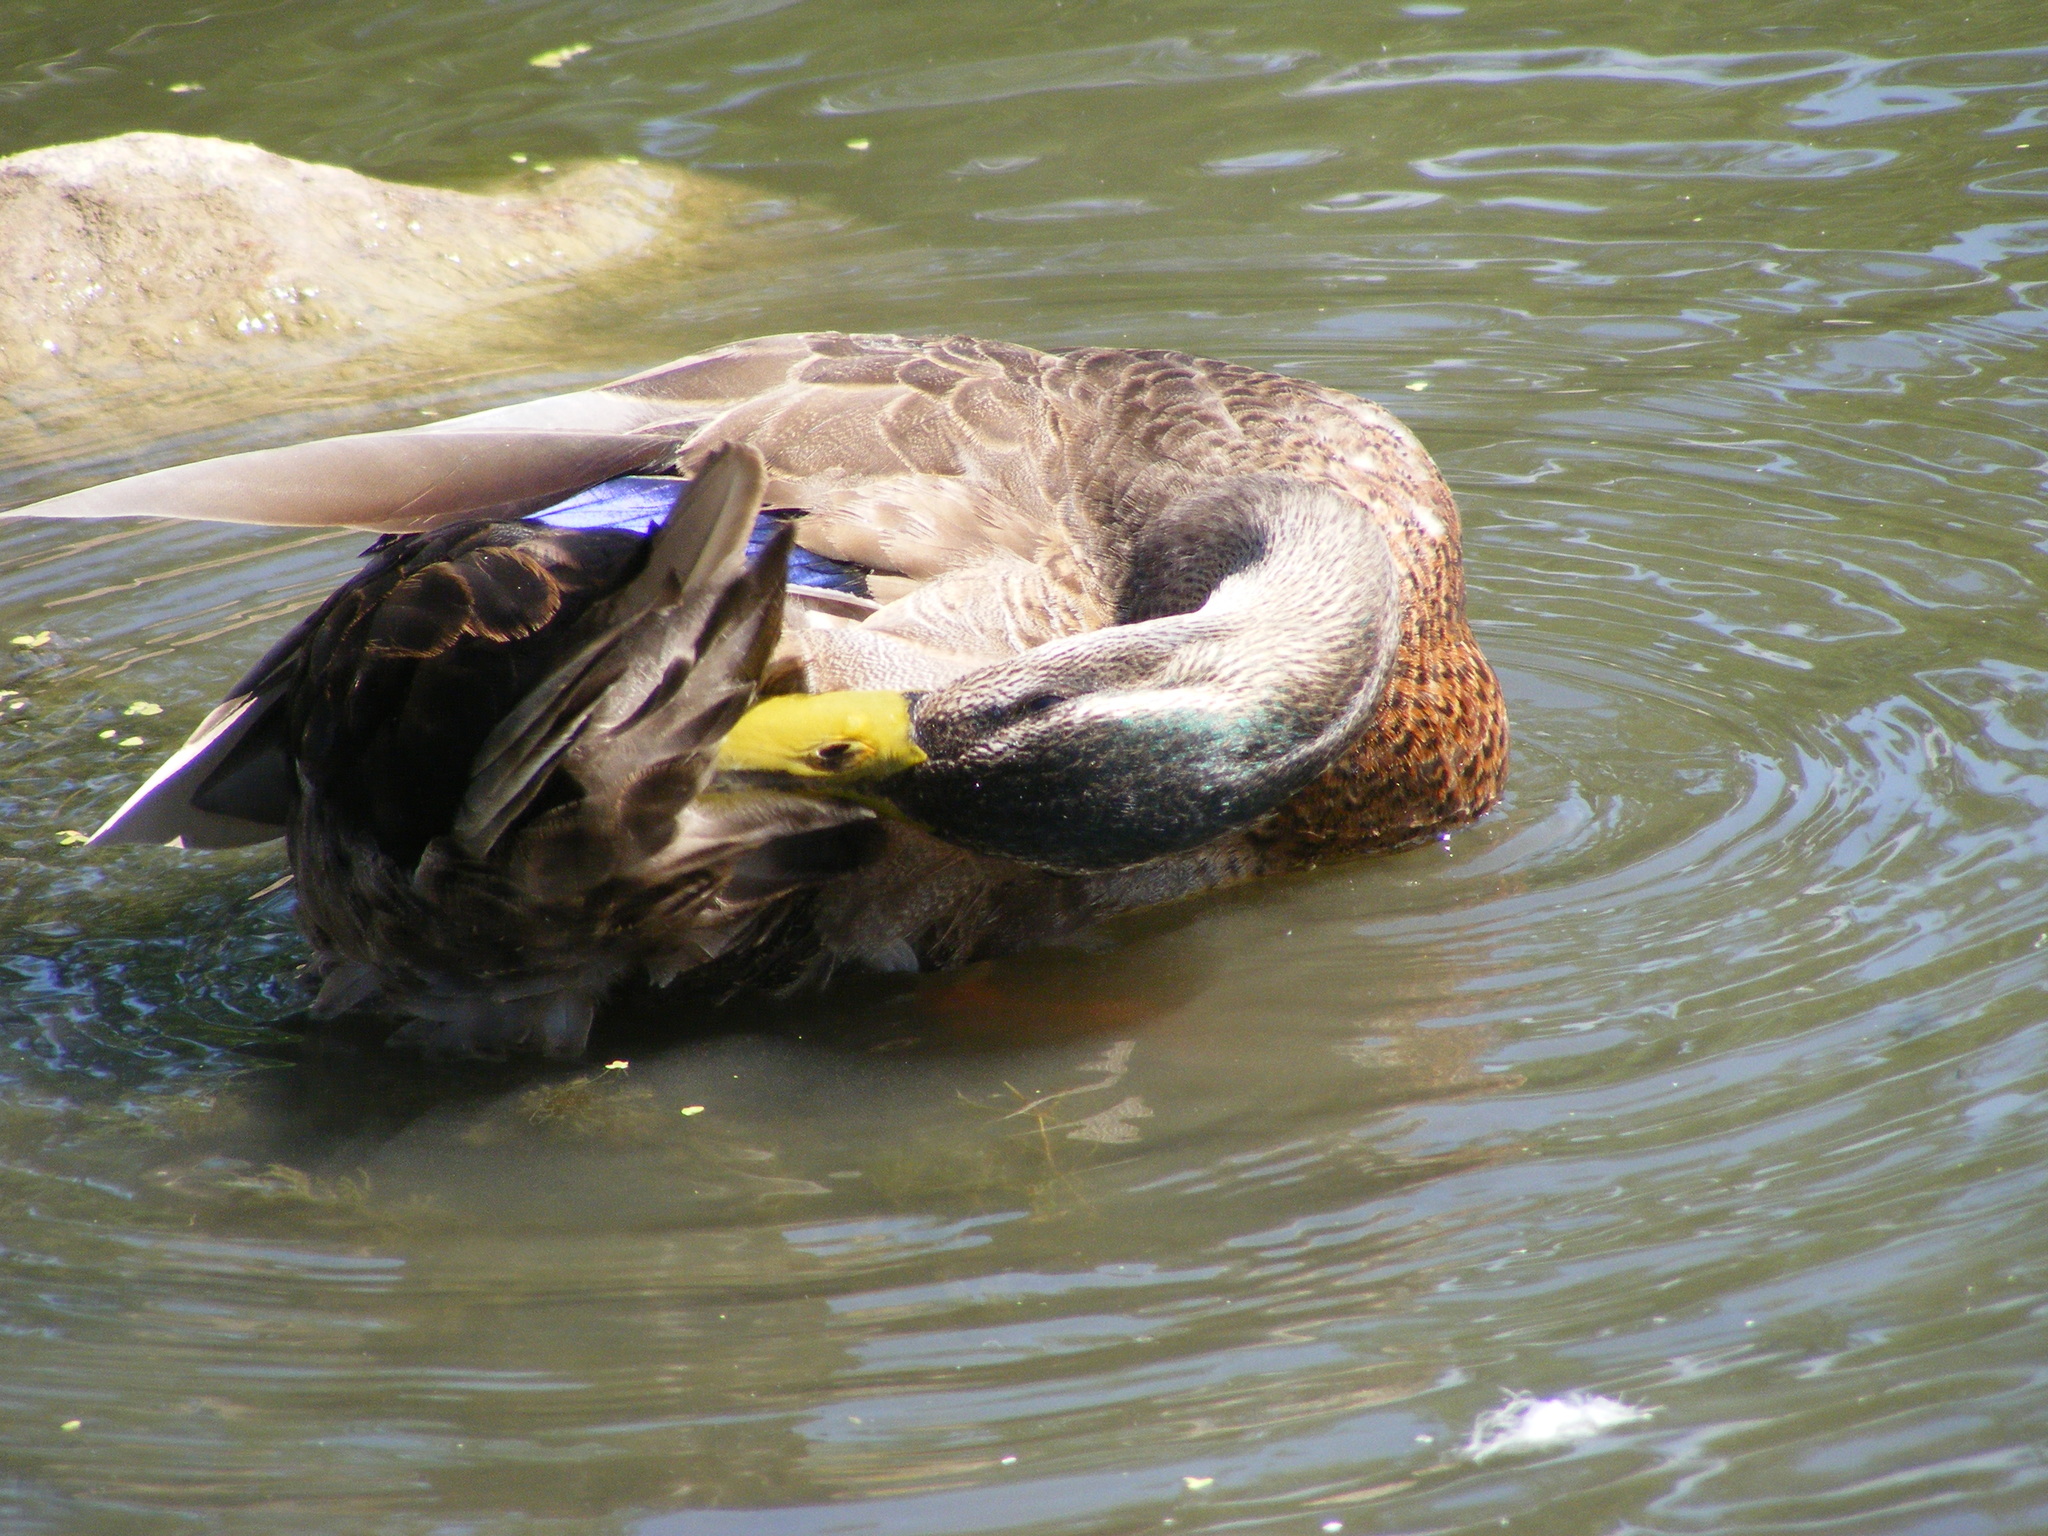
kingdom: Animalia
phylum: Chordata
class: Aves
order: Anseriformes
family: Anatidae
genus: Anas
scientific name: Anas platyrhynchos
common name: Mallard
